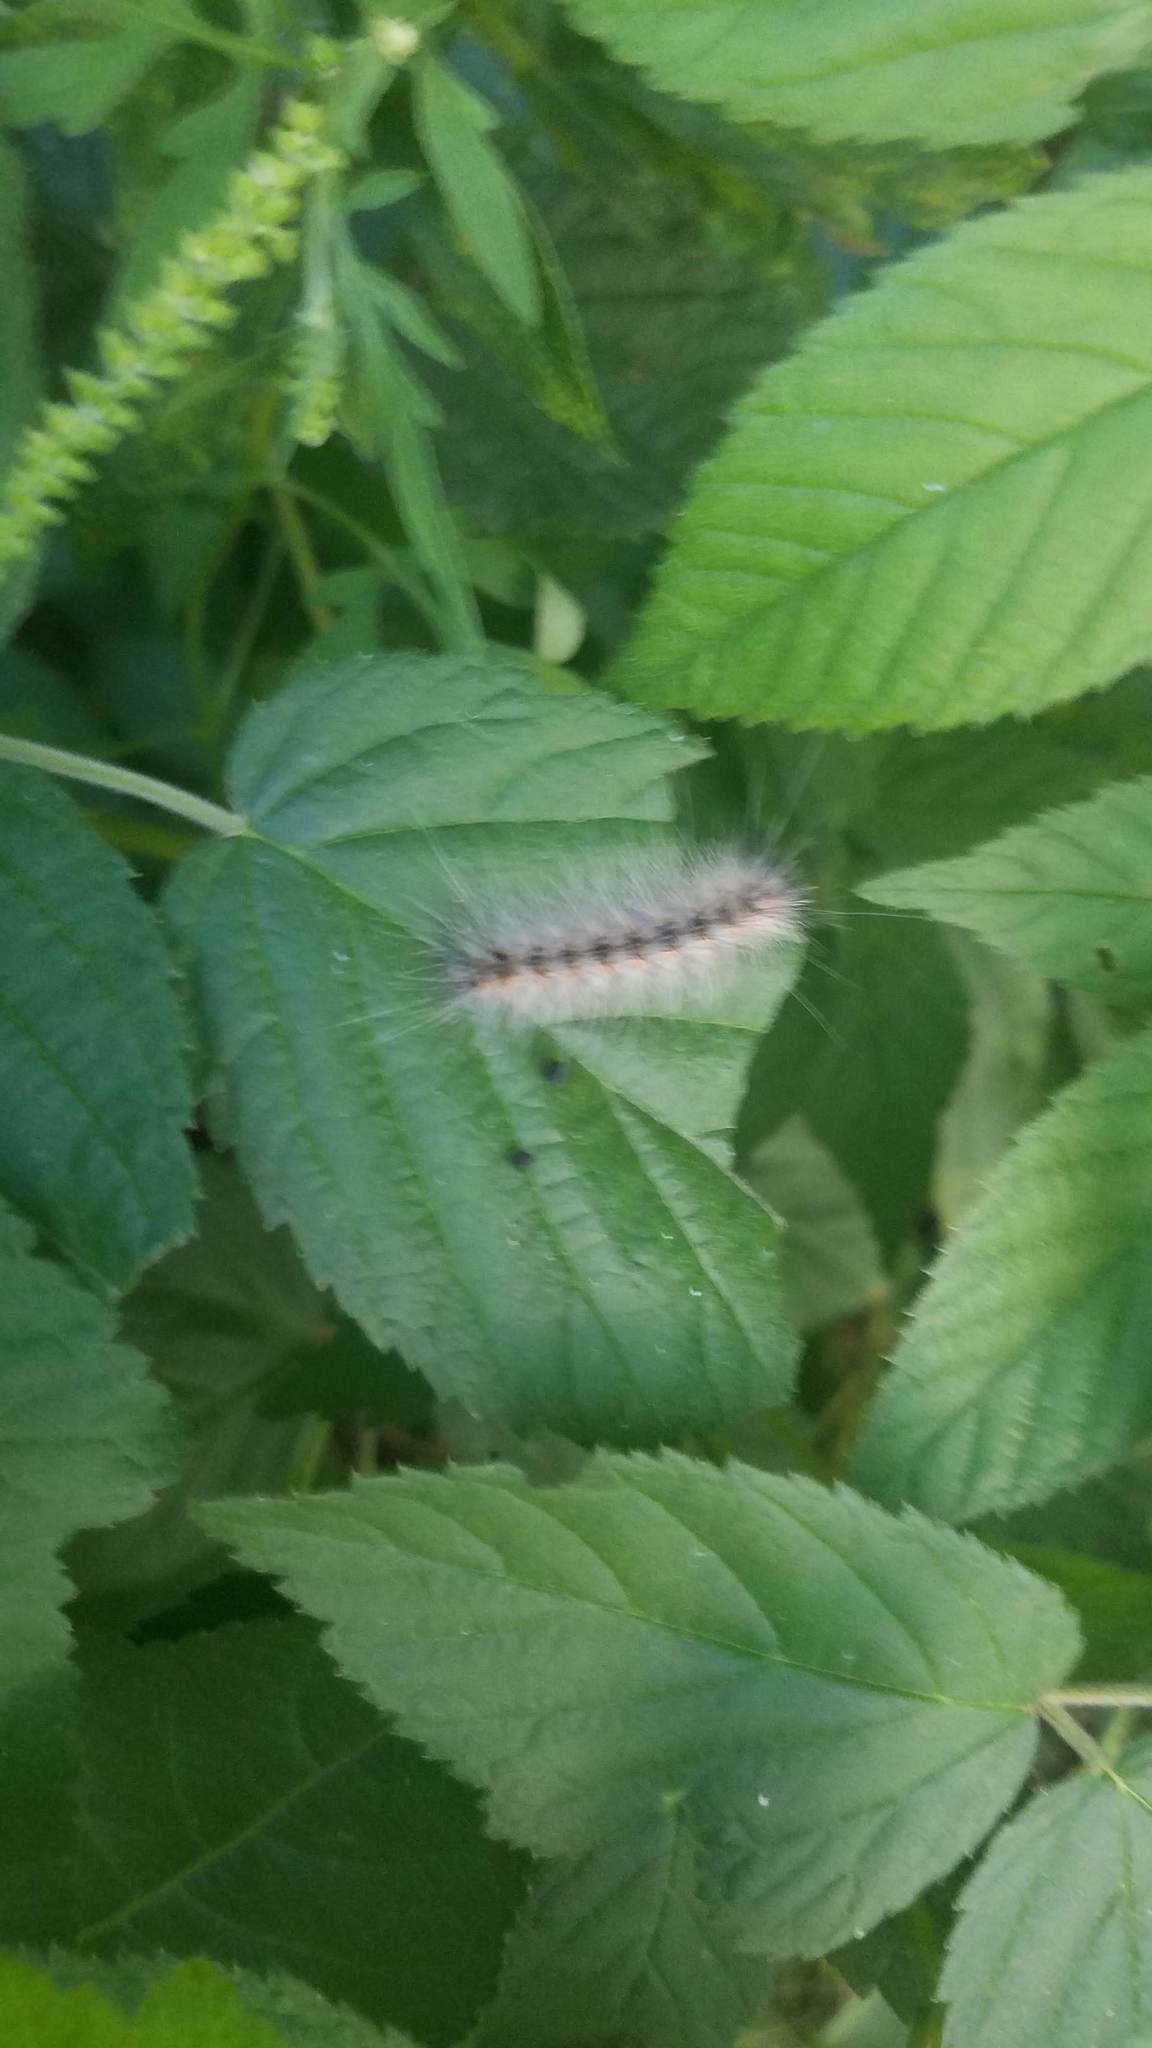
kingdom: Animalia
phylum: Arthropoda
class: Insecta
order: Lepidoptera
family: Erebidae
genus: Hyphantria
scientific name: Hyphantria cunea
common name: American white moth
